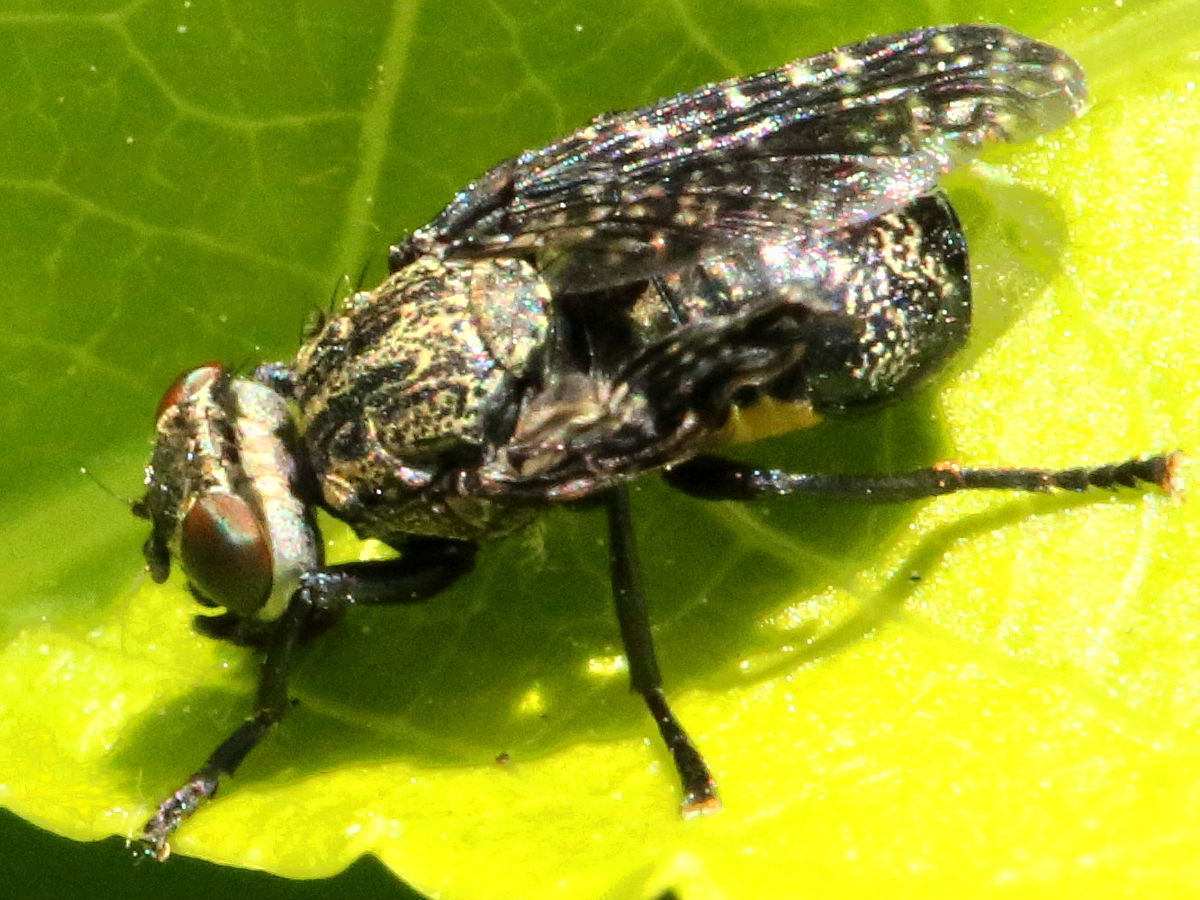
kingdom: Animalia
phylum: Arthropoda
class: Insecta
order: Diptera
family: Platystomatidae
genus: Platystoma
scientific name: Platystoma seminationis
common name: Fly
